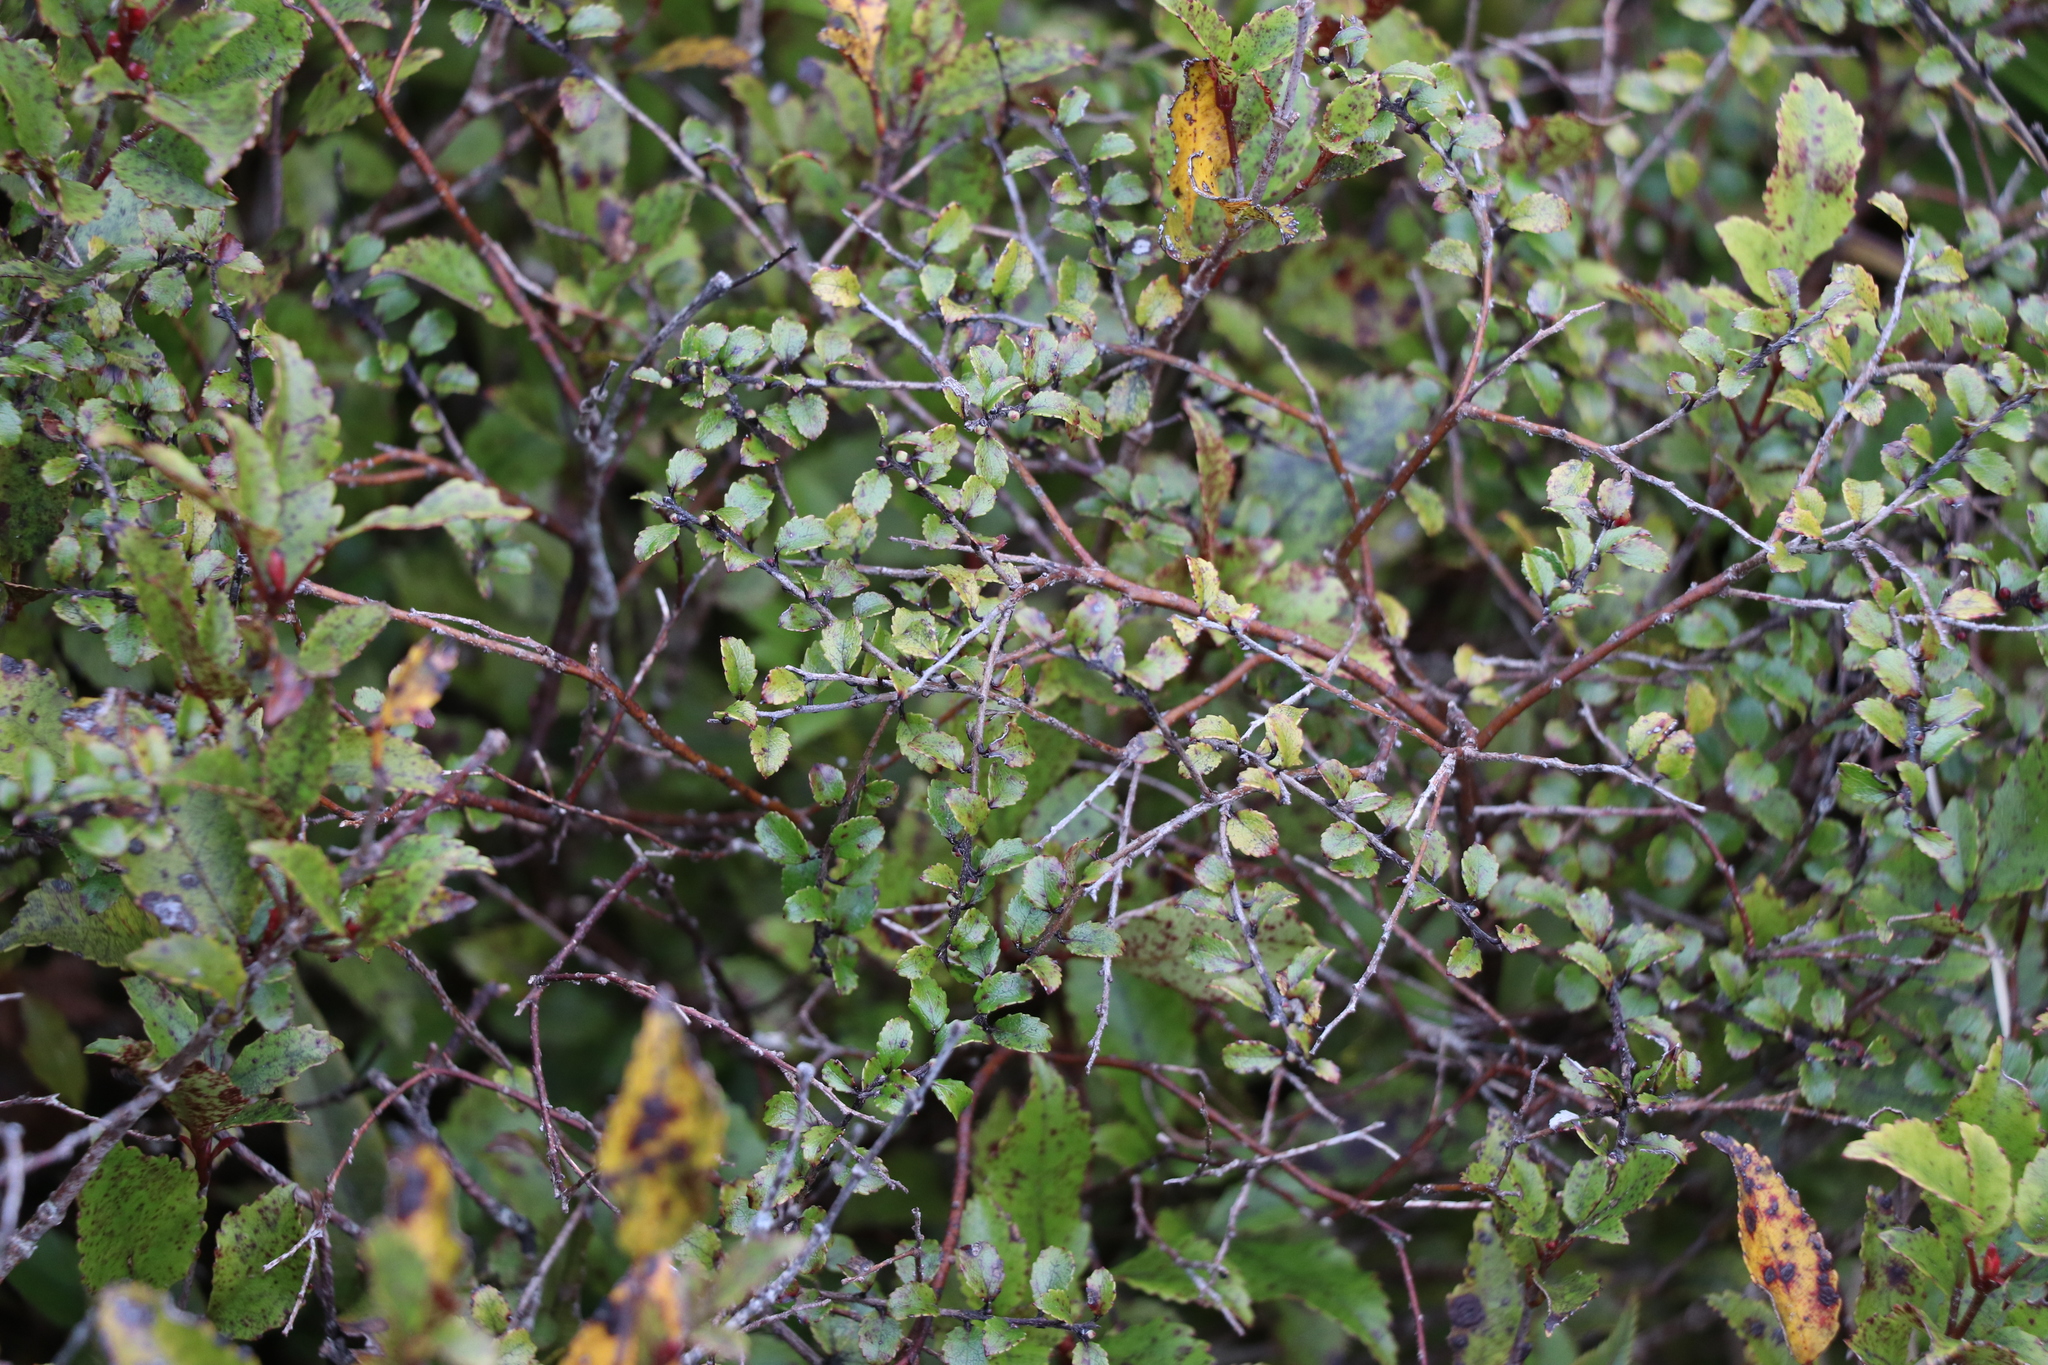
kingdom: Plantae
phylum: Tracheophyta
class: Magnoliopsida
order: Ericales
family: Ericaceae
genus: Gaultheria
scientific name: Gaultheria antipoda
